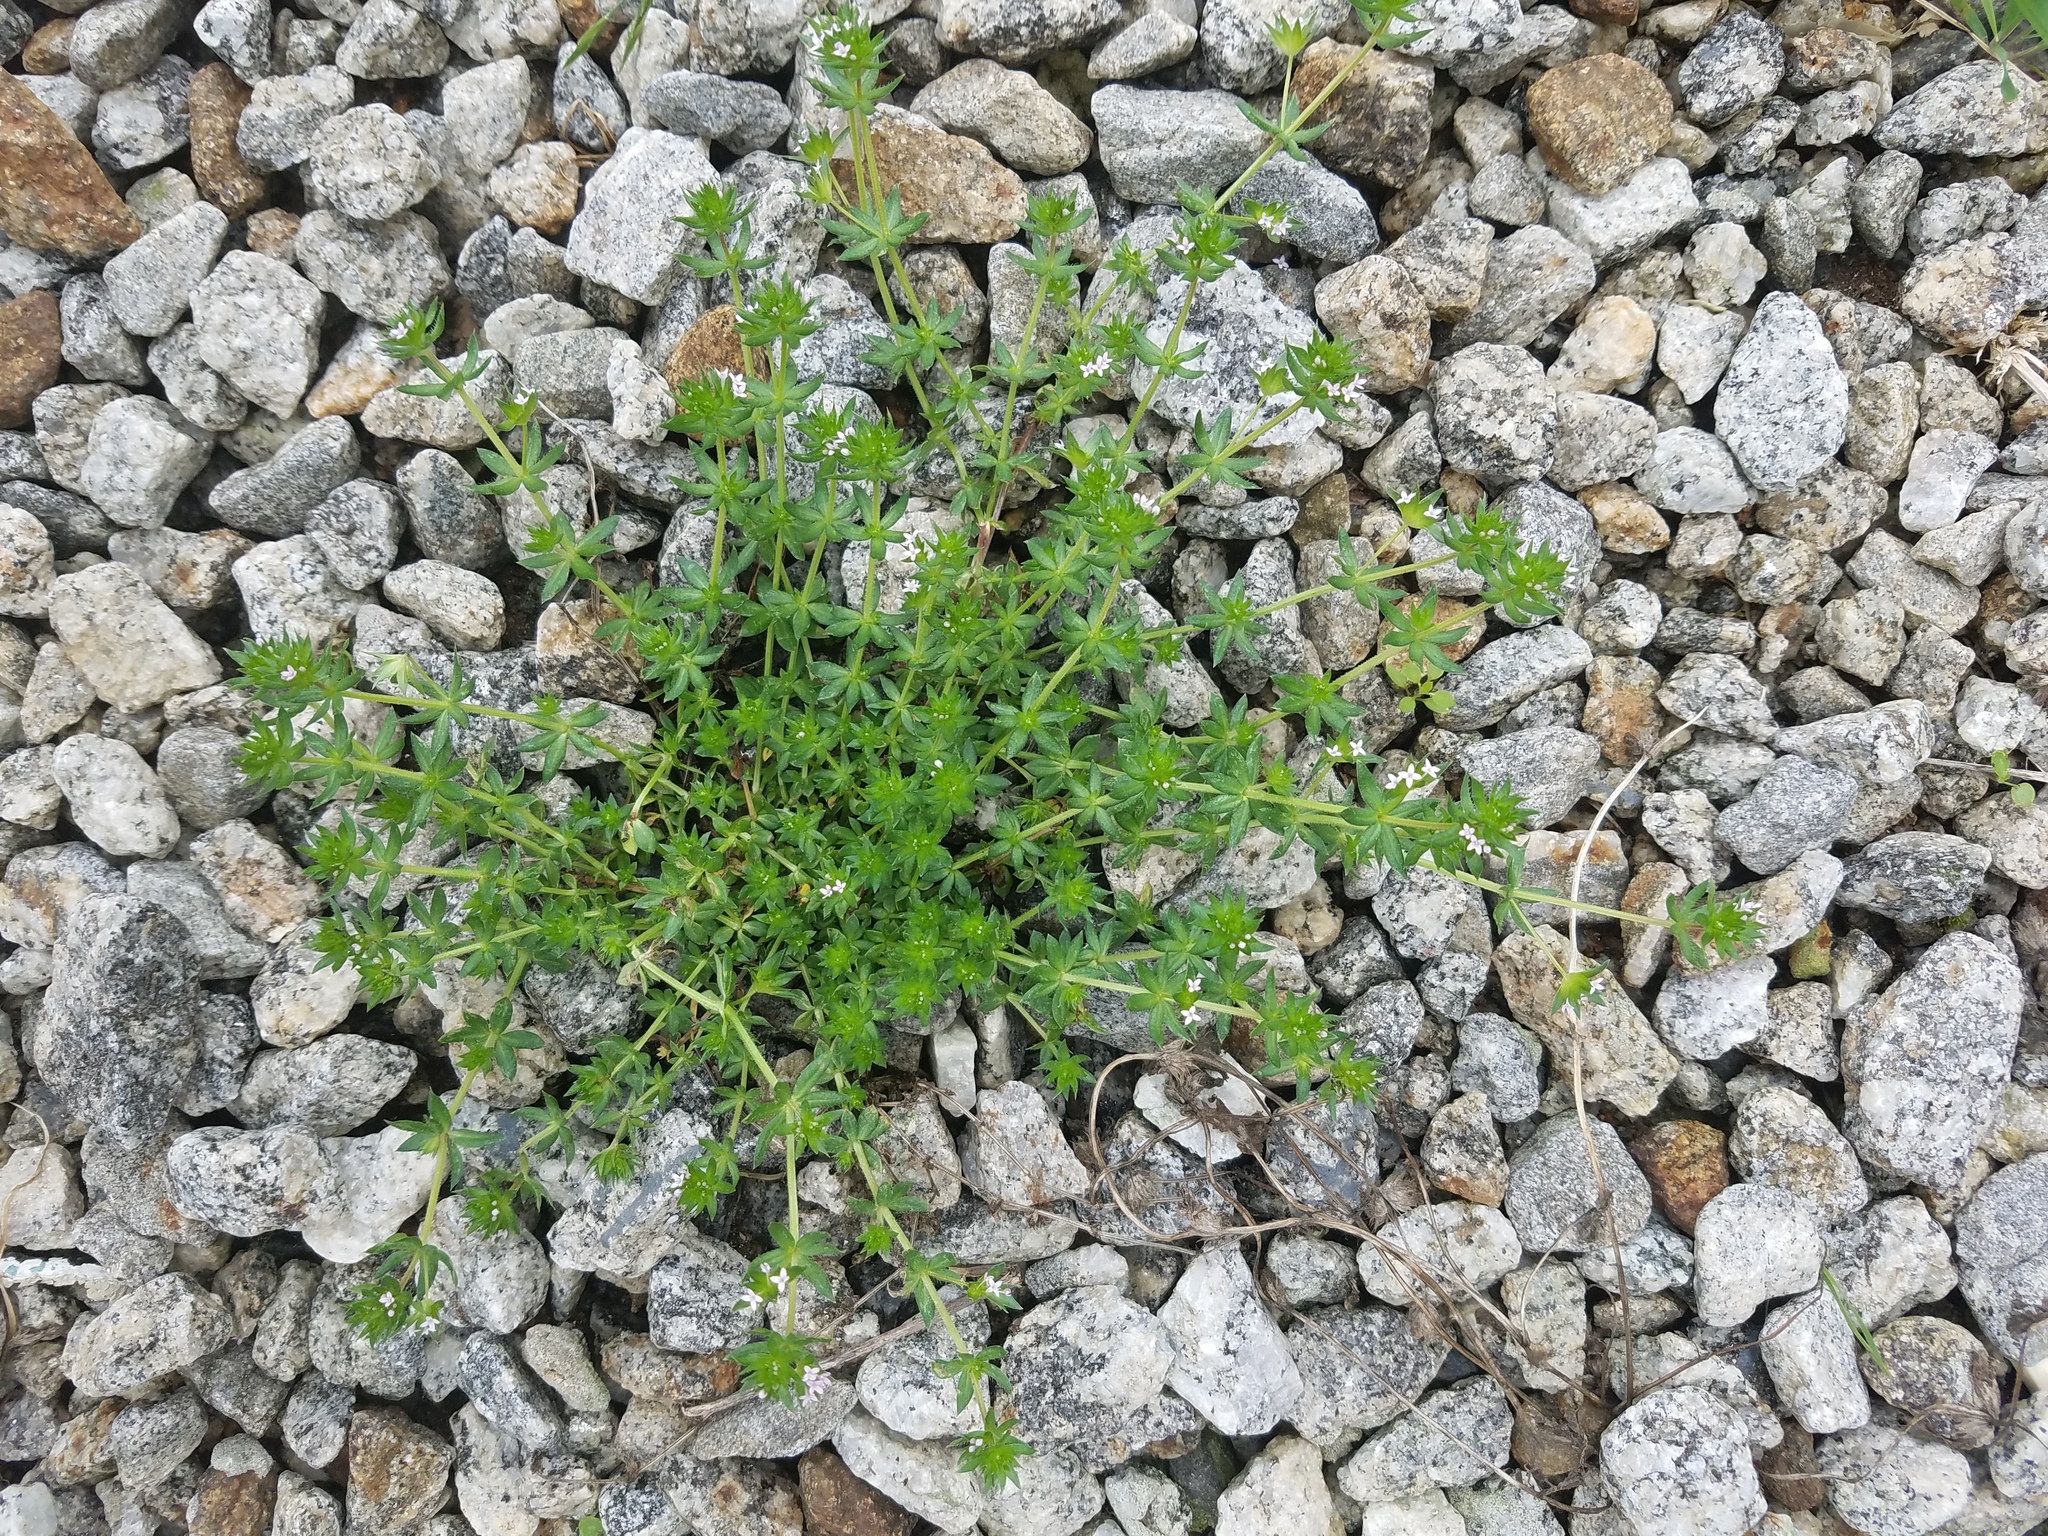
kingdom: Plantae
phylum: Tracheophyta
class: Magnoliopsida
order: Gentianales
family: Rubiaceae
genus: Sherardia
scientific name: Sherardia arvensis
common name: Field madder
